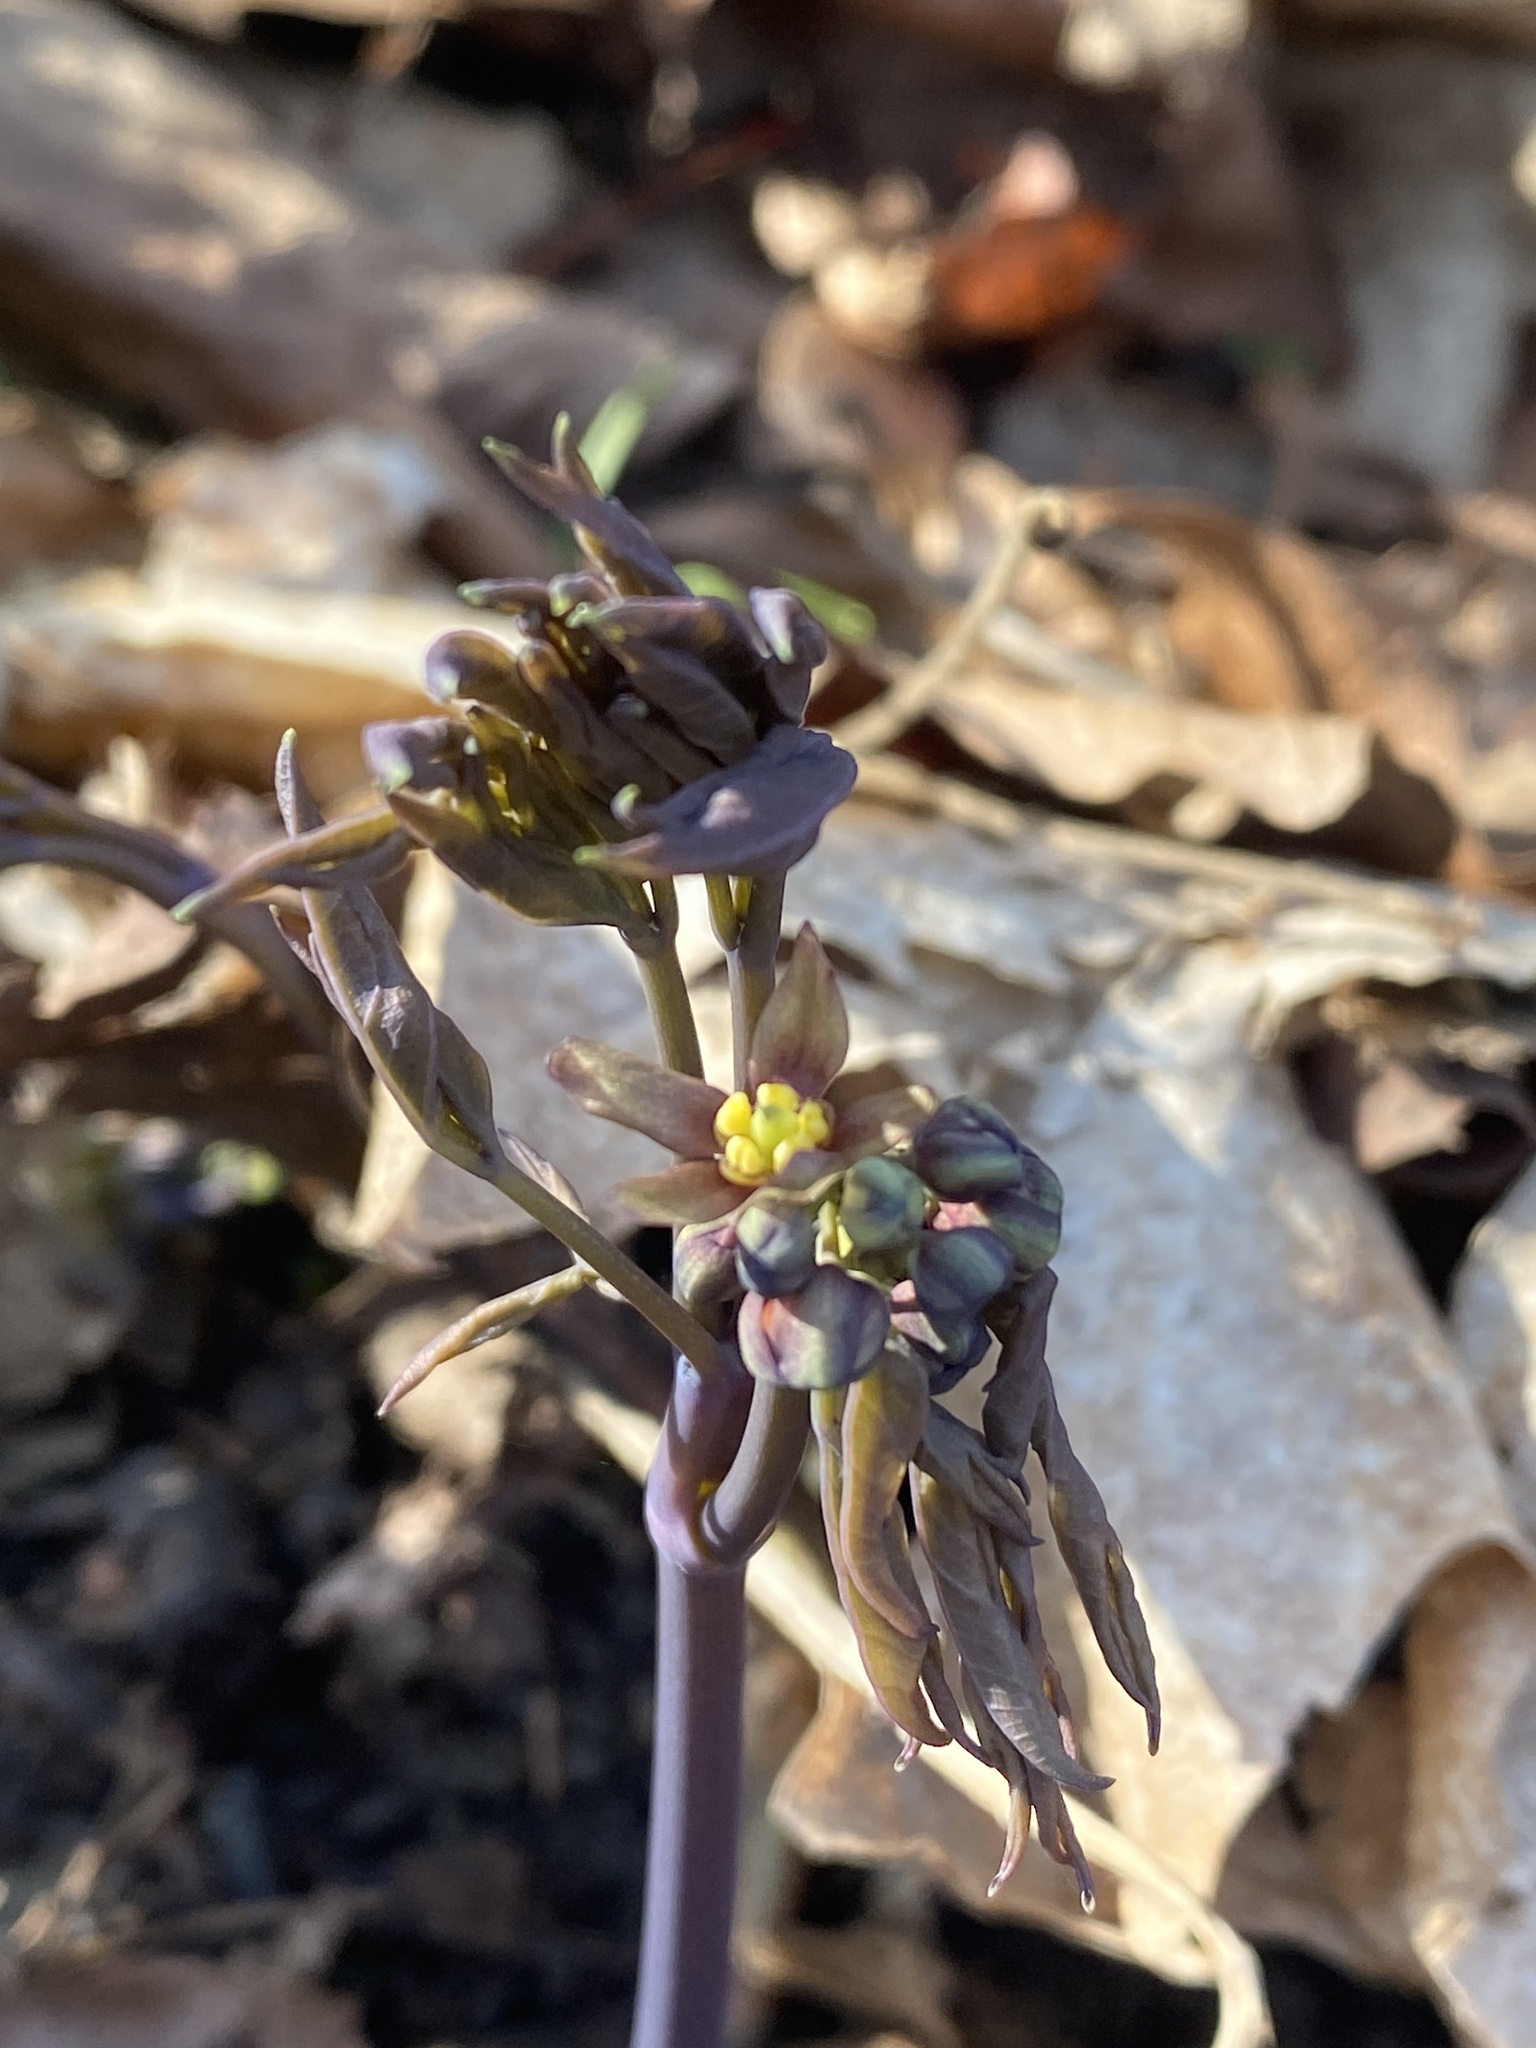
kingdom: Plantae
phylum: Tracheophyta
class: Magnoliopsida
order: Ranunculales
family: Berberidaceae
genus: Caulophyllum
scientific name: Caulophyllum giganteum
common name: Blue cohosh
